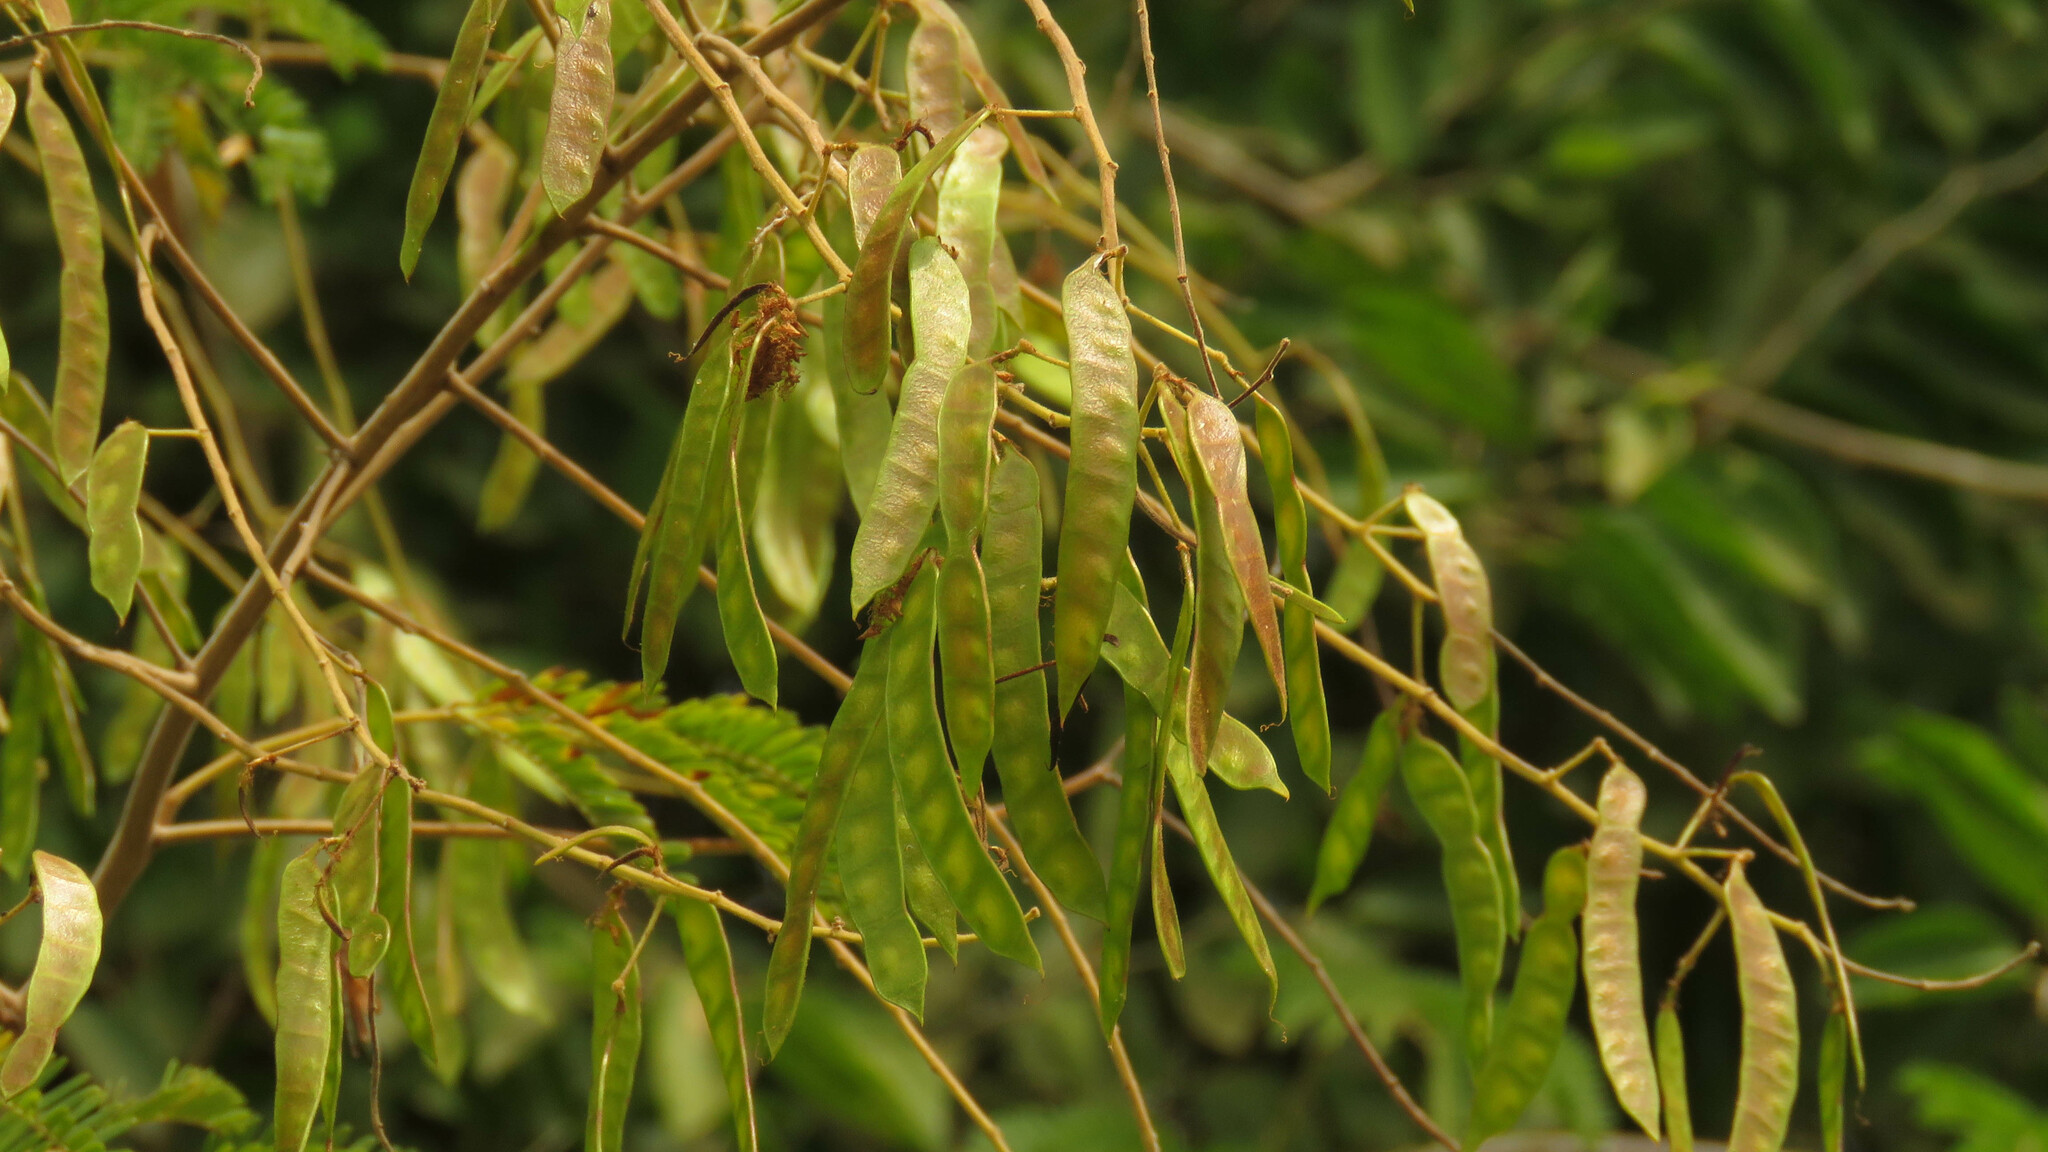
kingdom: Plantae
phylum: Tracheophyta
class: Magnoliopsida
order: Fabales
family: Fabaceae
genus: Mimosa
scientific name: Mimosa bimucronata
